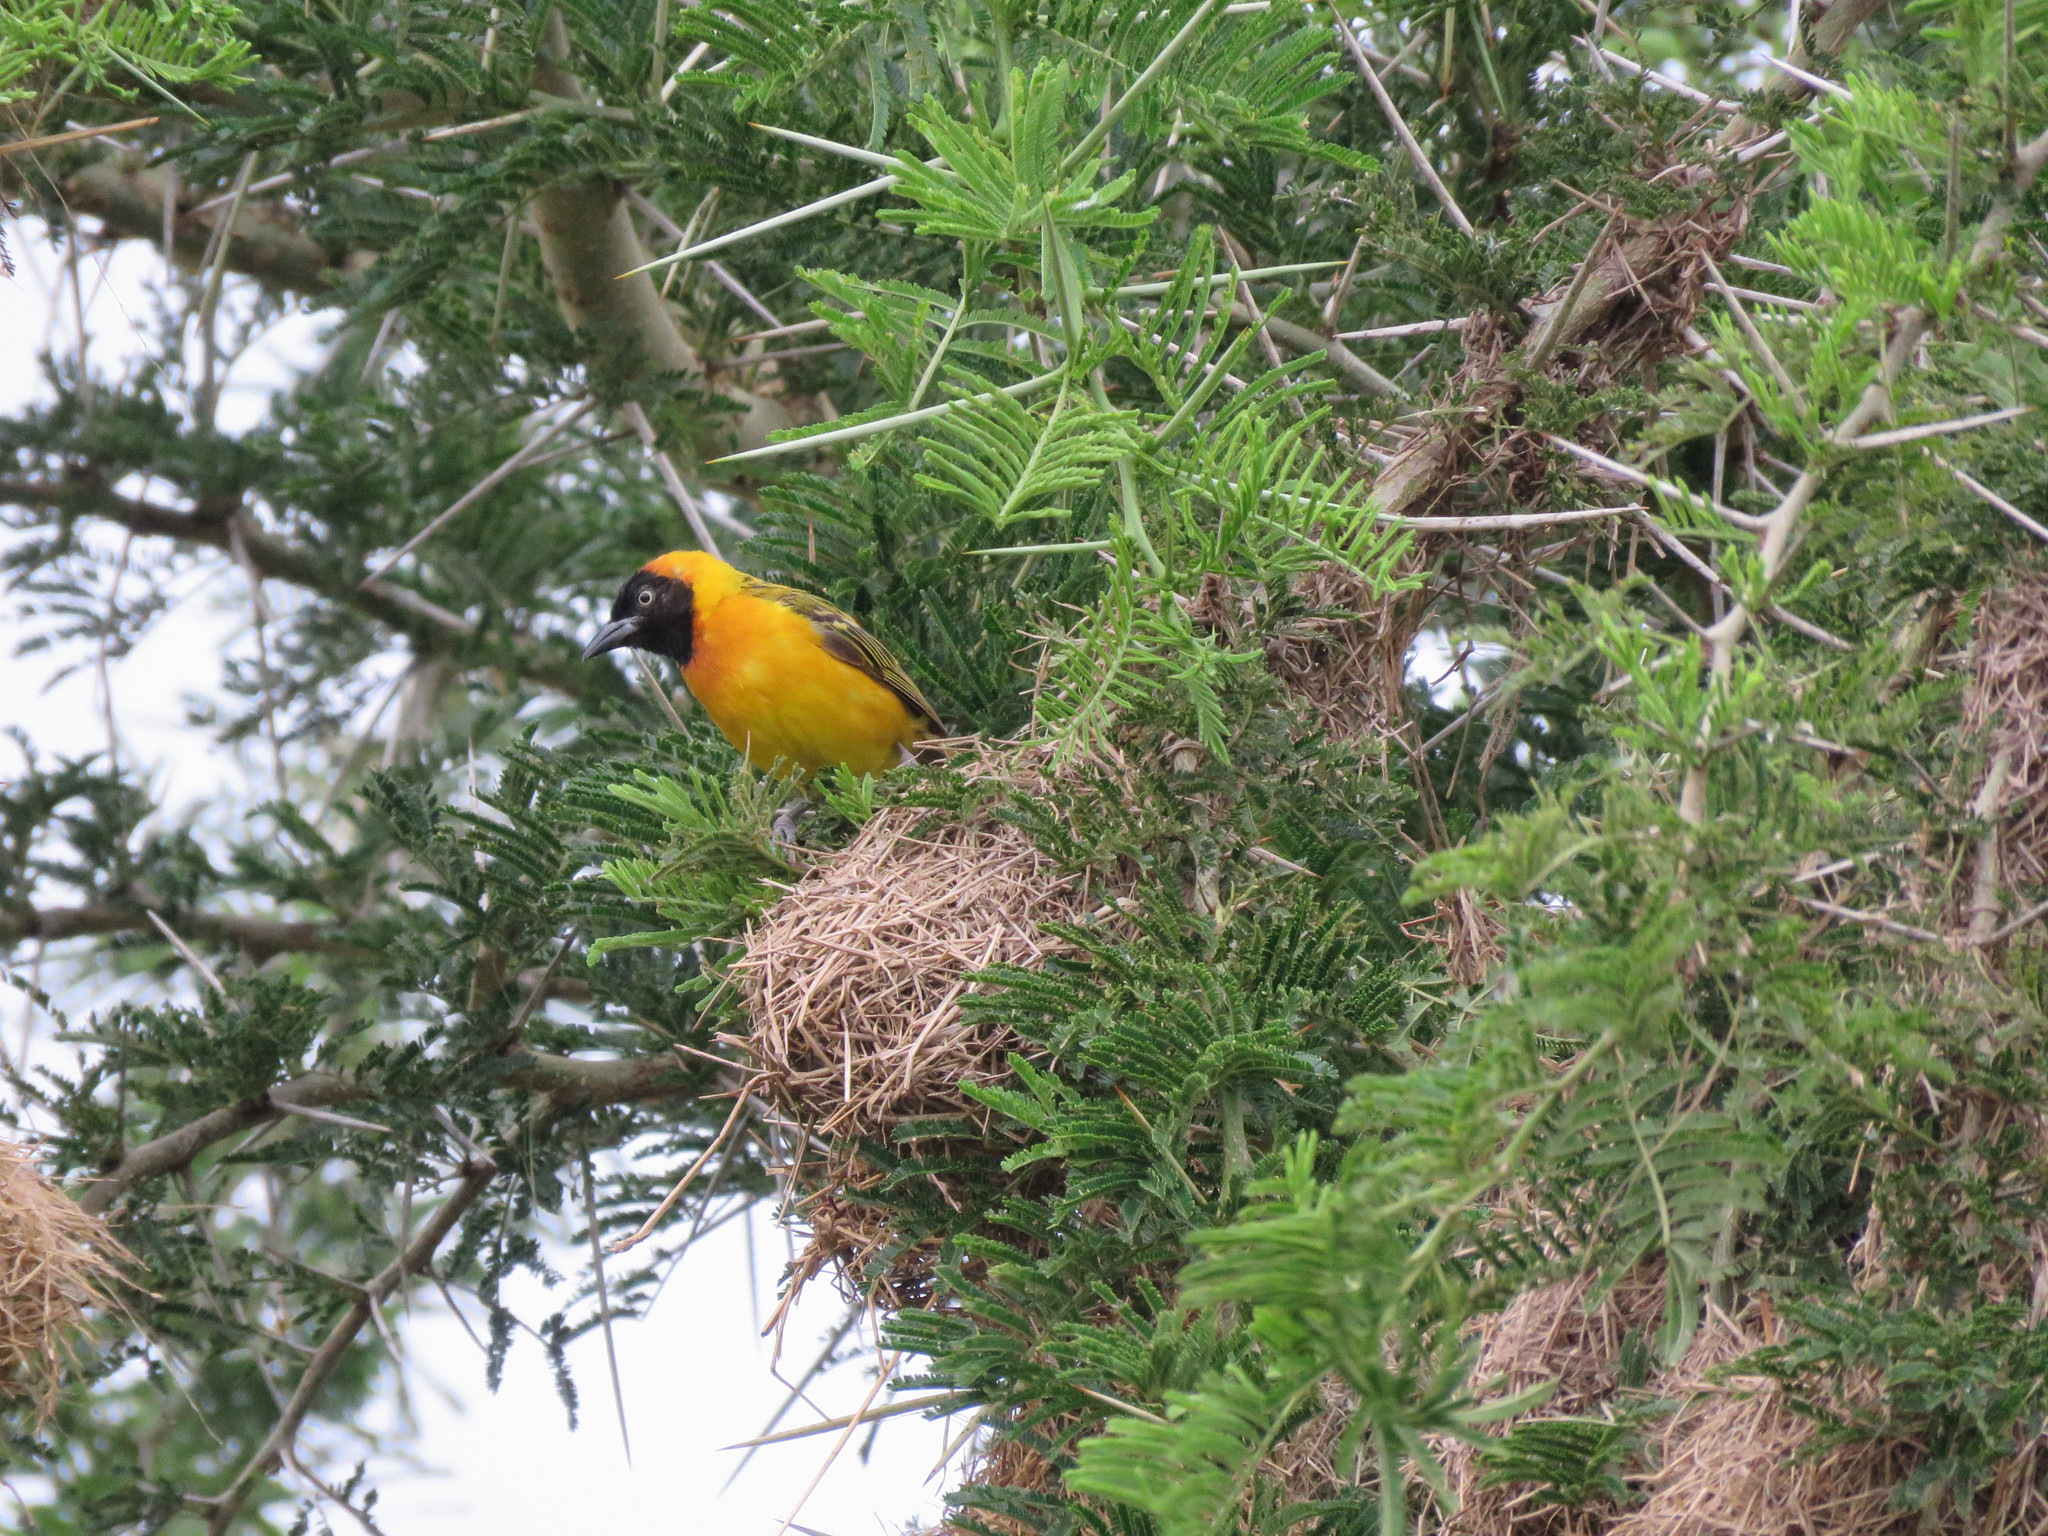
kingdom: Animalia
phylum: Chordata
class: Aves
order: Passeriformes
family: Ploceidae
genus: Ploceus
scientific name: Ploceus intermedius
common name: Lesser masked weaver
